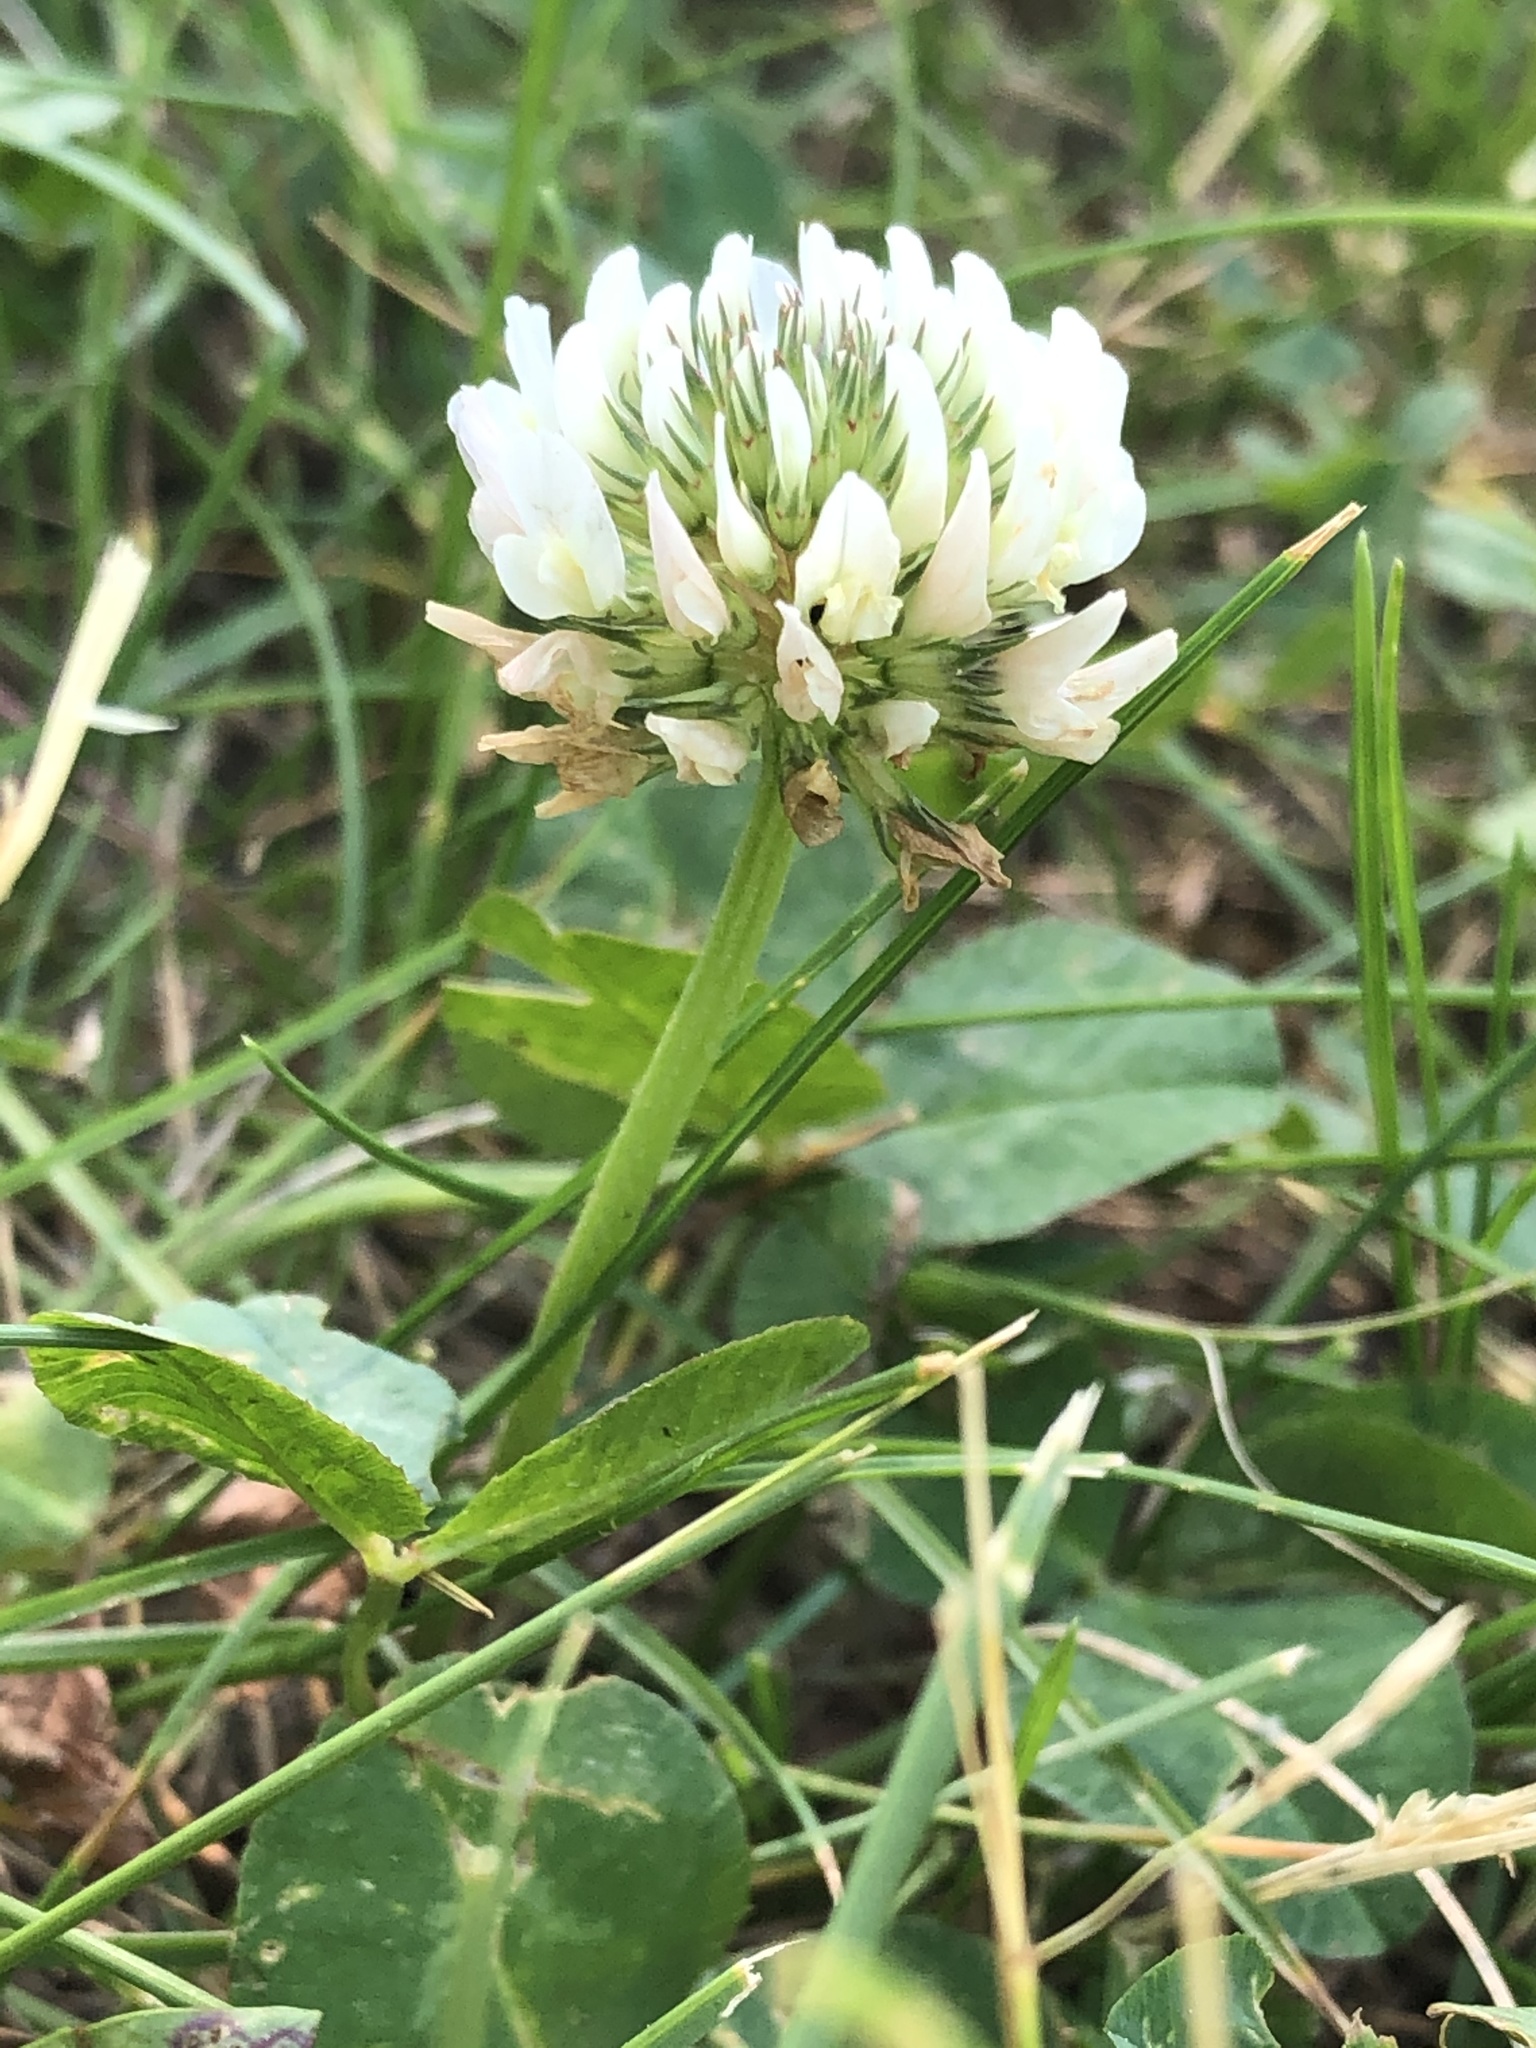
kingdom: Plantae
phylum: Tracheophyta
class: Magnoliopsida
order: Fabales
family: Fabaceae
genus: Trifolium
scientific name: Trifolium repens
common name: White clover
